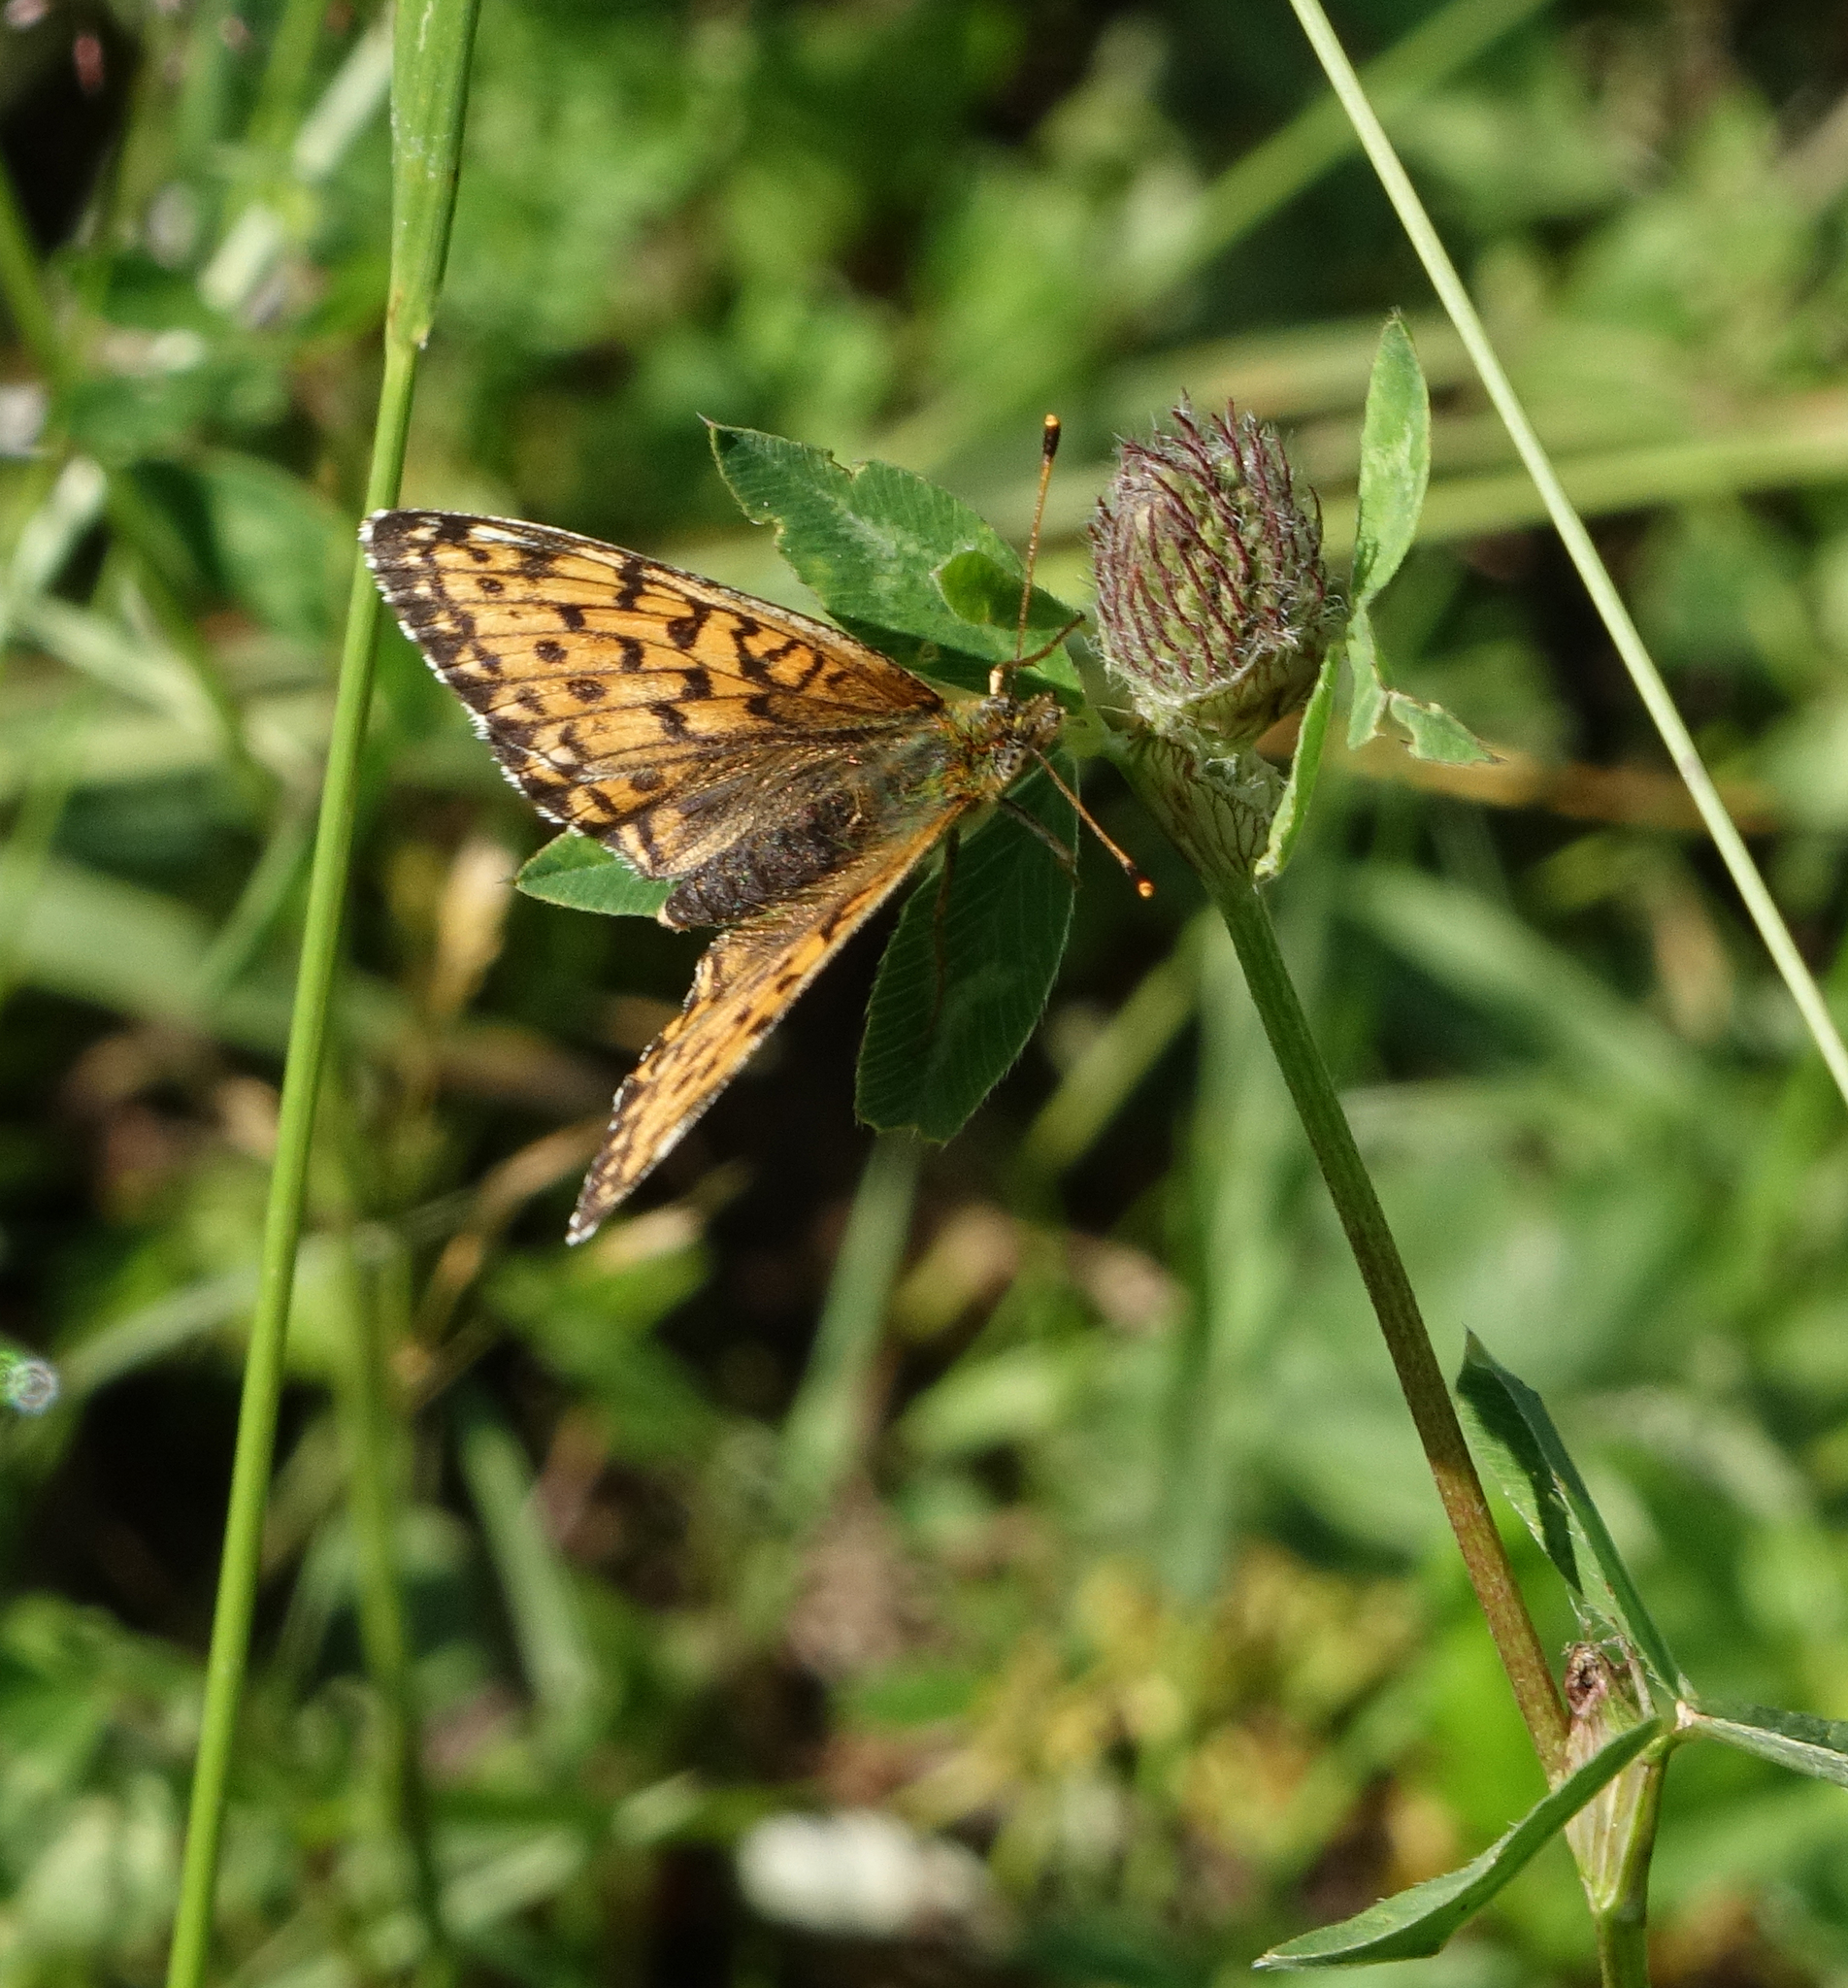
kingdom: Plantae
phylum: Tracheophyta
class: Magnoliopsida
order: Fabales
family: Fabaceae
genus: Trifolium
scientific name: Trifolium pratense
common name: Red clover
